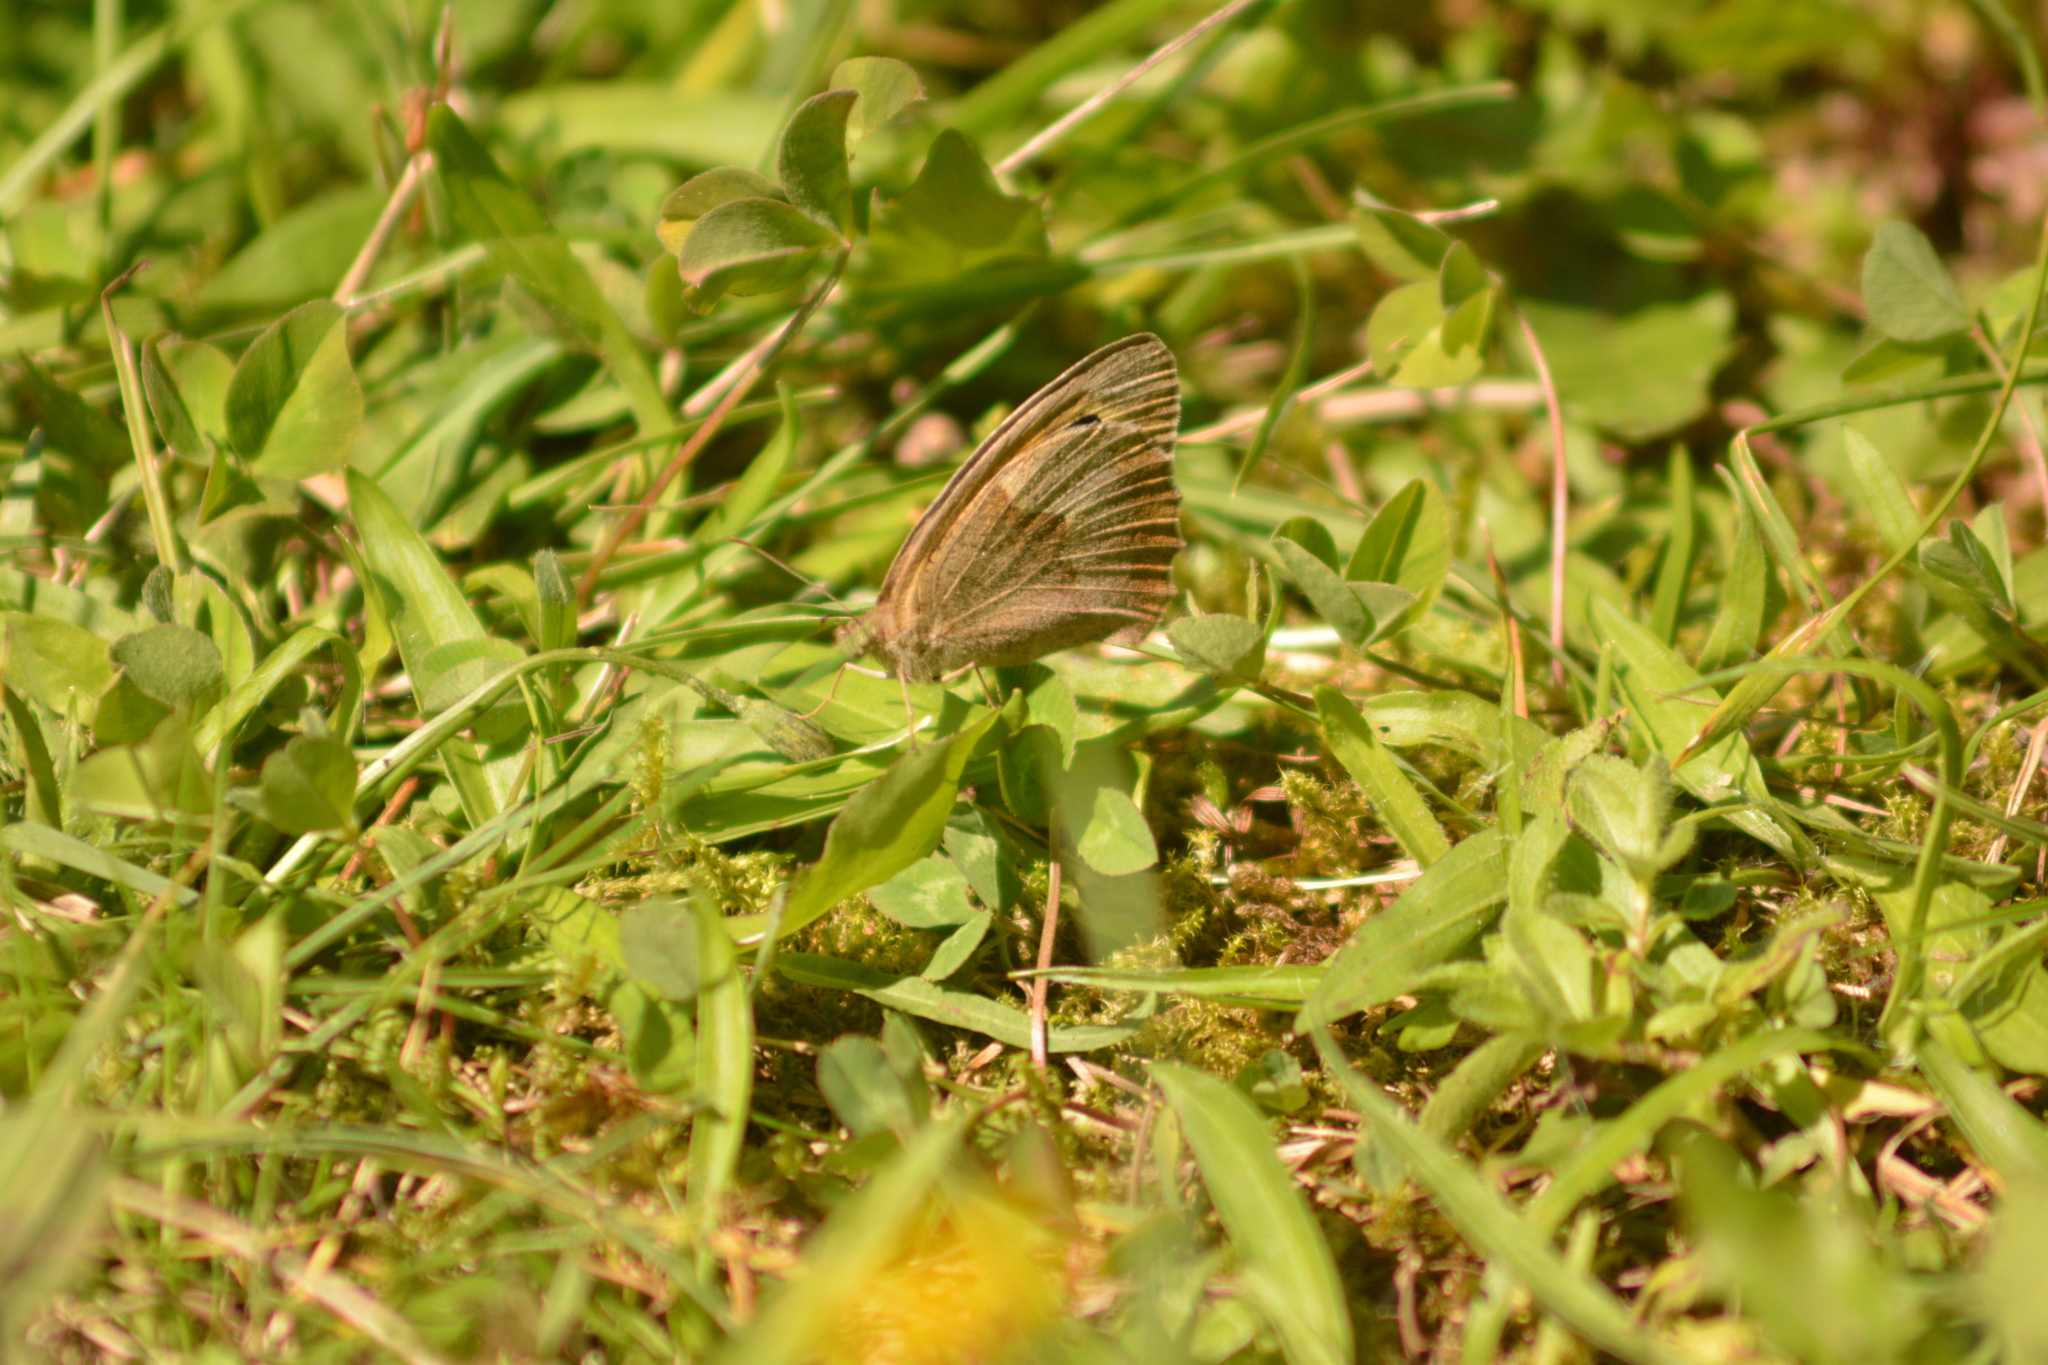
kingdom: Animalia
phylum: Arthropoda
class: Insecta
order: Lepidoptera
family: Nymphalidae
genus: Maniola
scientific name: Maniola jurtina
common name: Meadow brown
